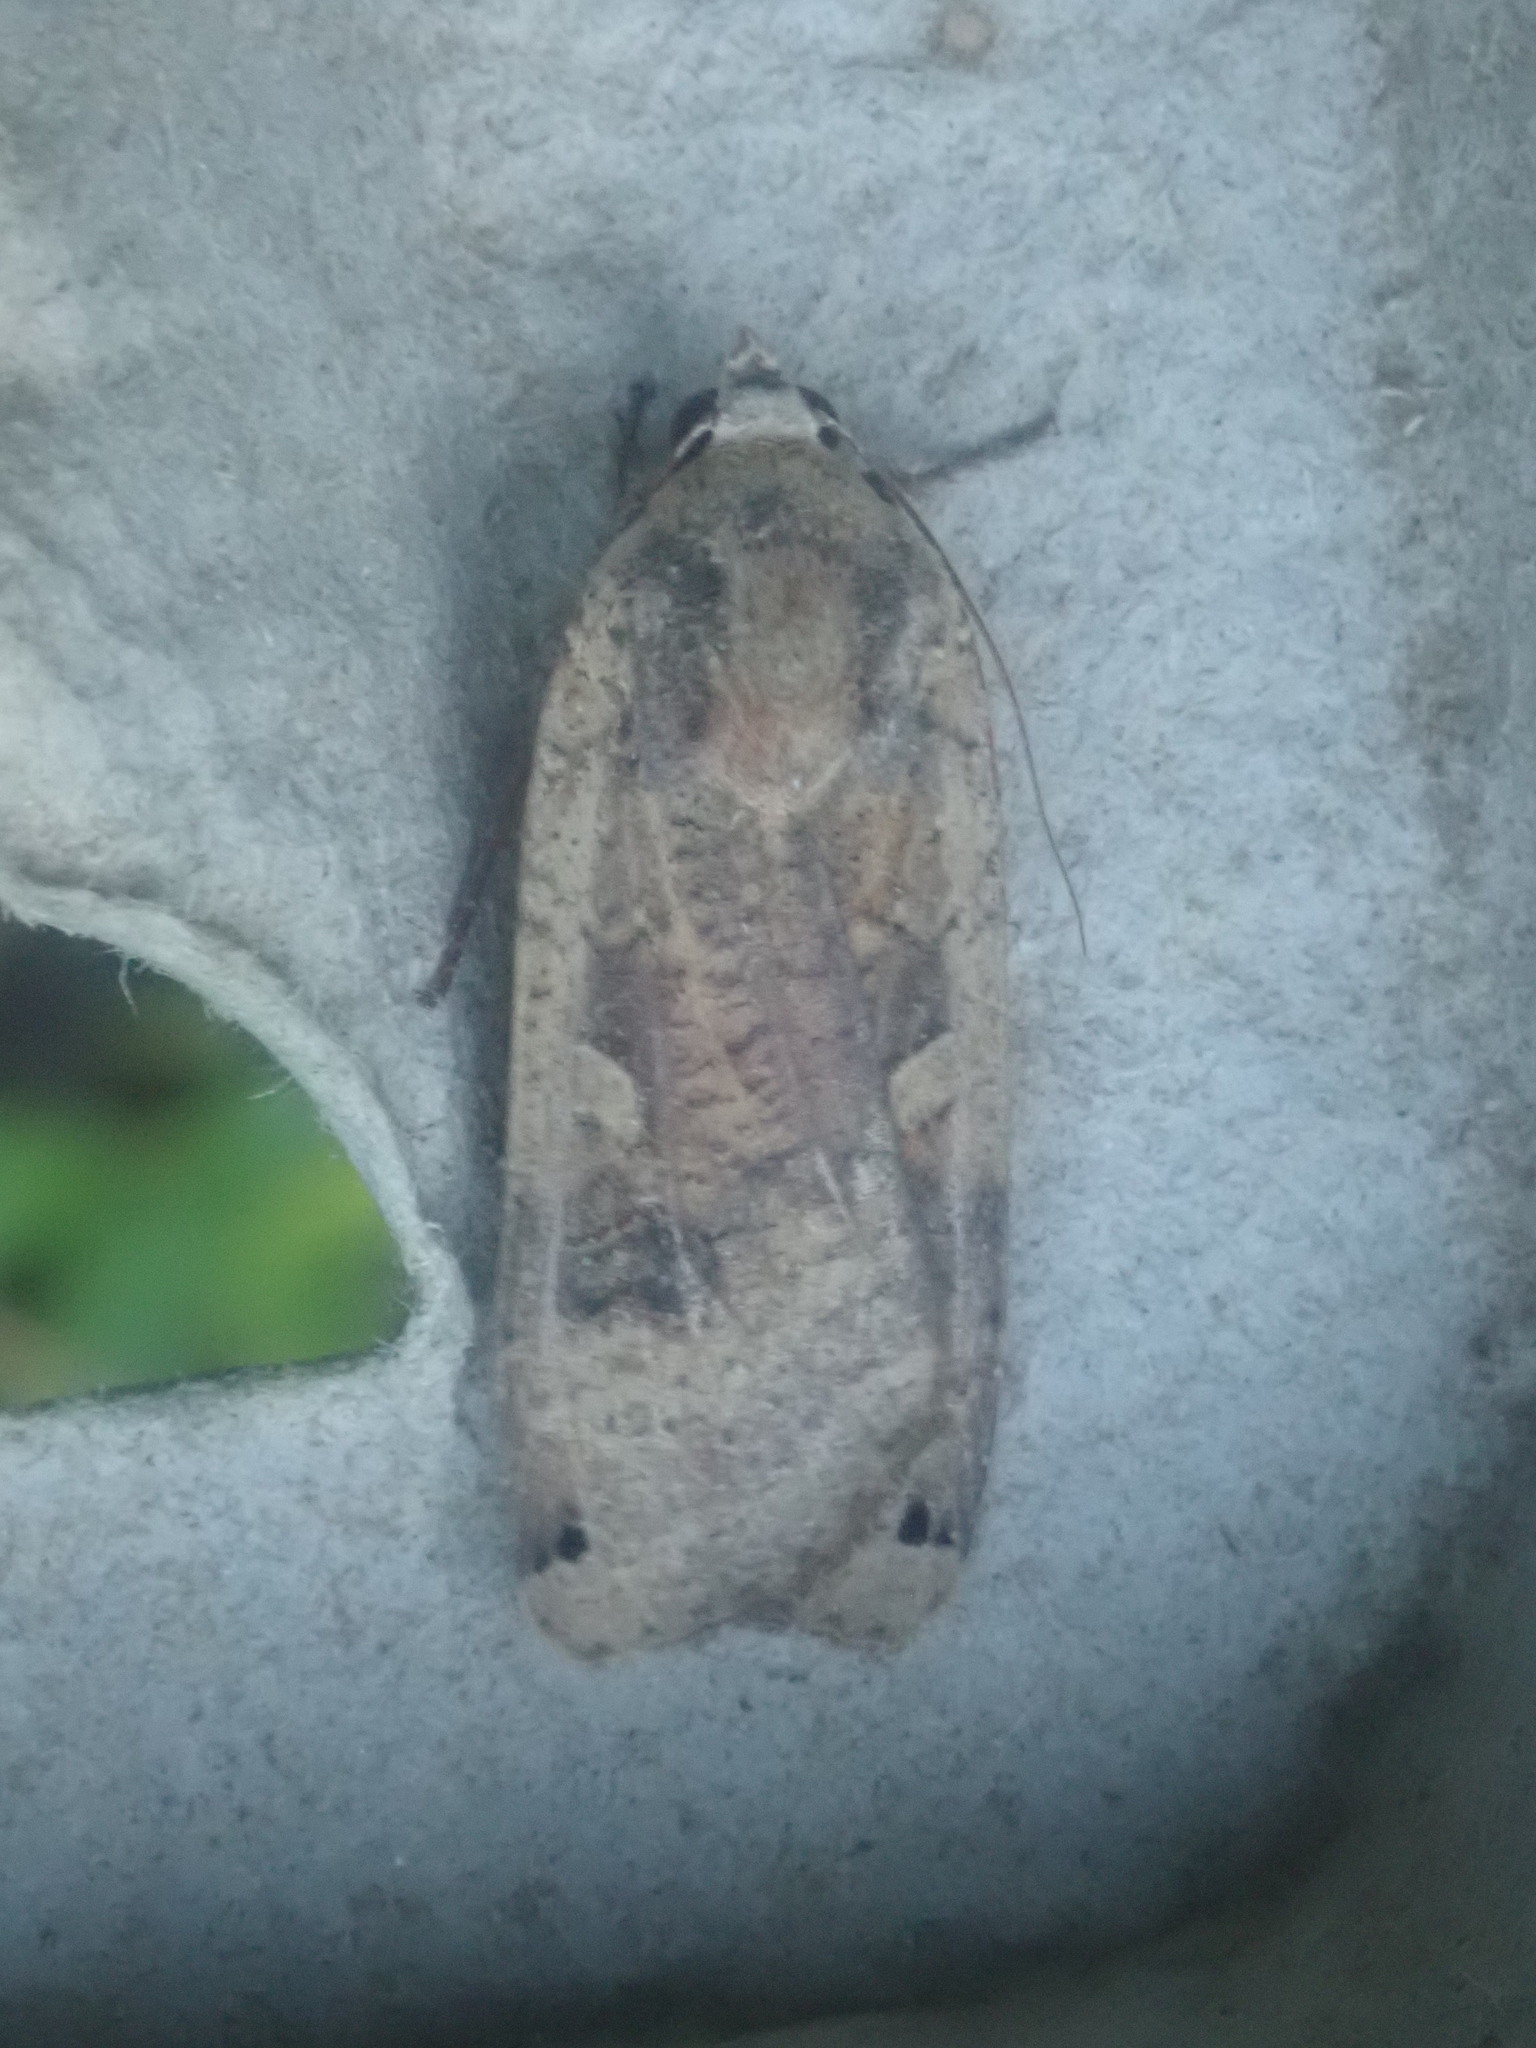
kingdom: Animalia
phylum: Arthropoda
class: Insecta
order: Lepidoptera
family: Noctuidae
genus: Noctua
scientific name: Noctua pronuba
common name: Large yellow underwing
